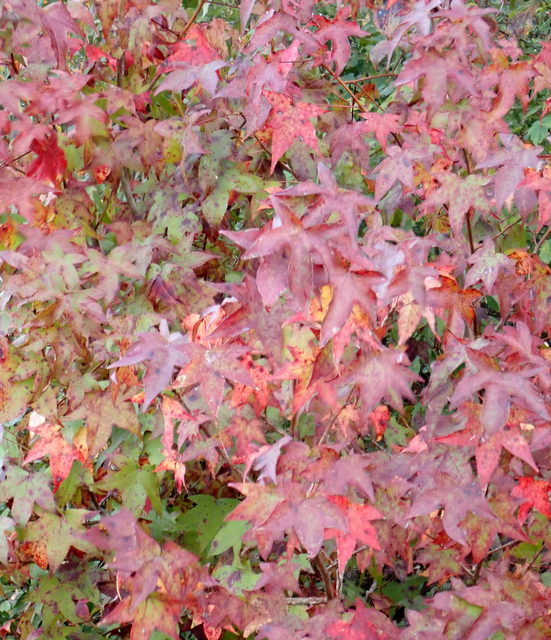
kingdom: Plantae
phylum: Tracheophyta
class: Magnoliopsida
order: Saxifragales
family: Altingiaceae
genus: Liquidambar
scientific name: Liquidambar styraciflua
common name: Sweet gum
